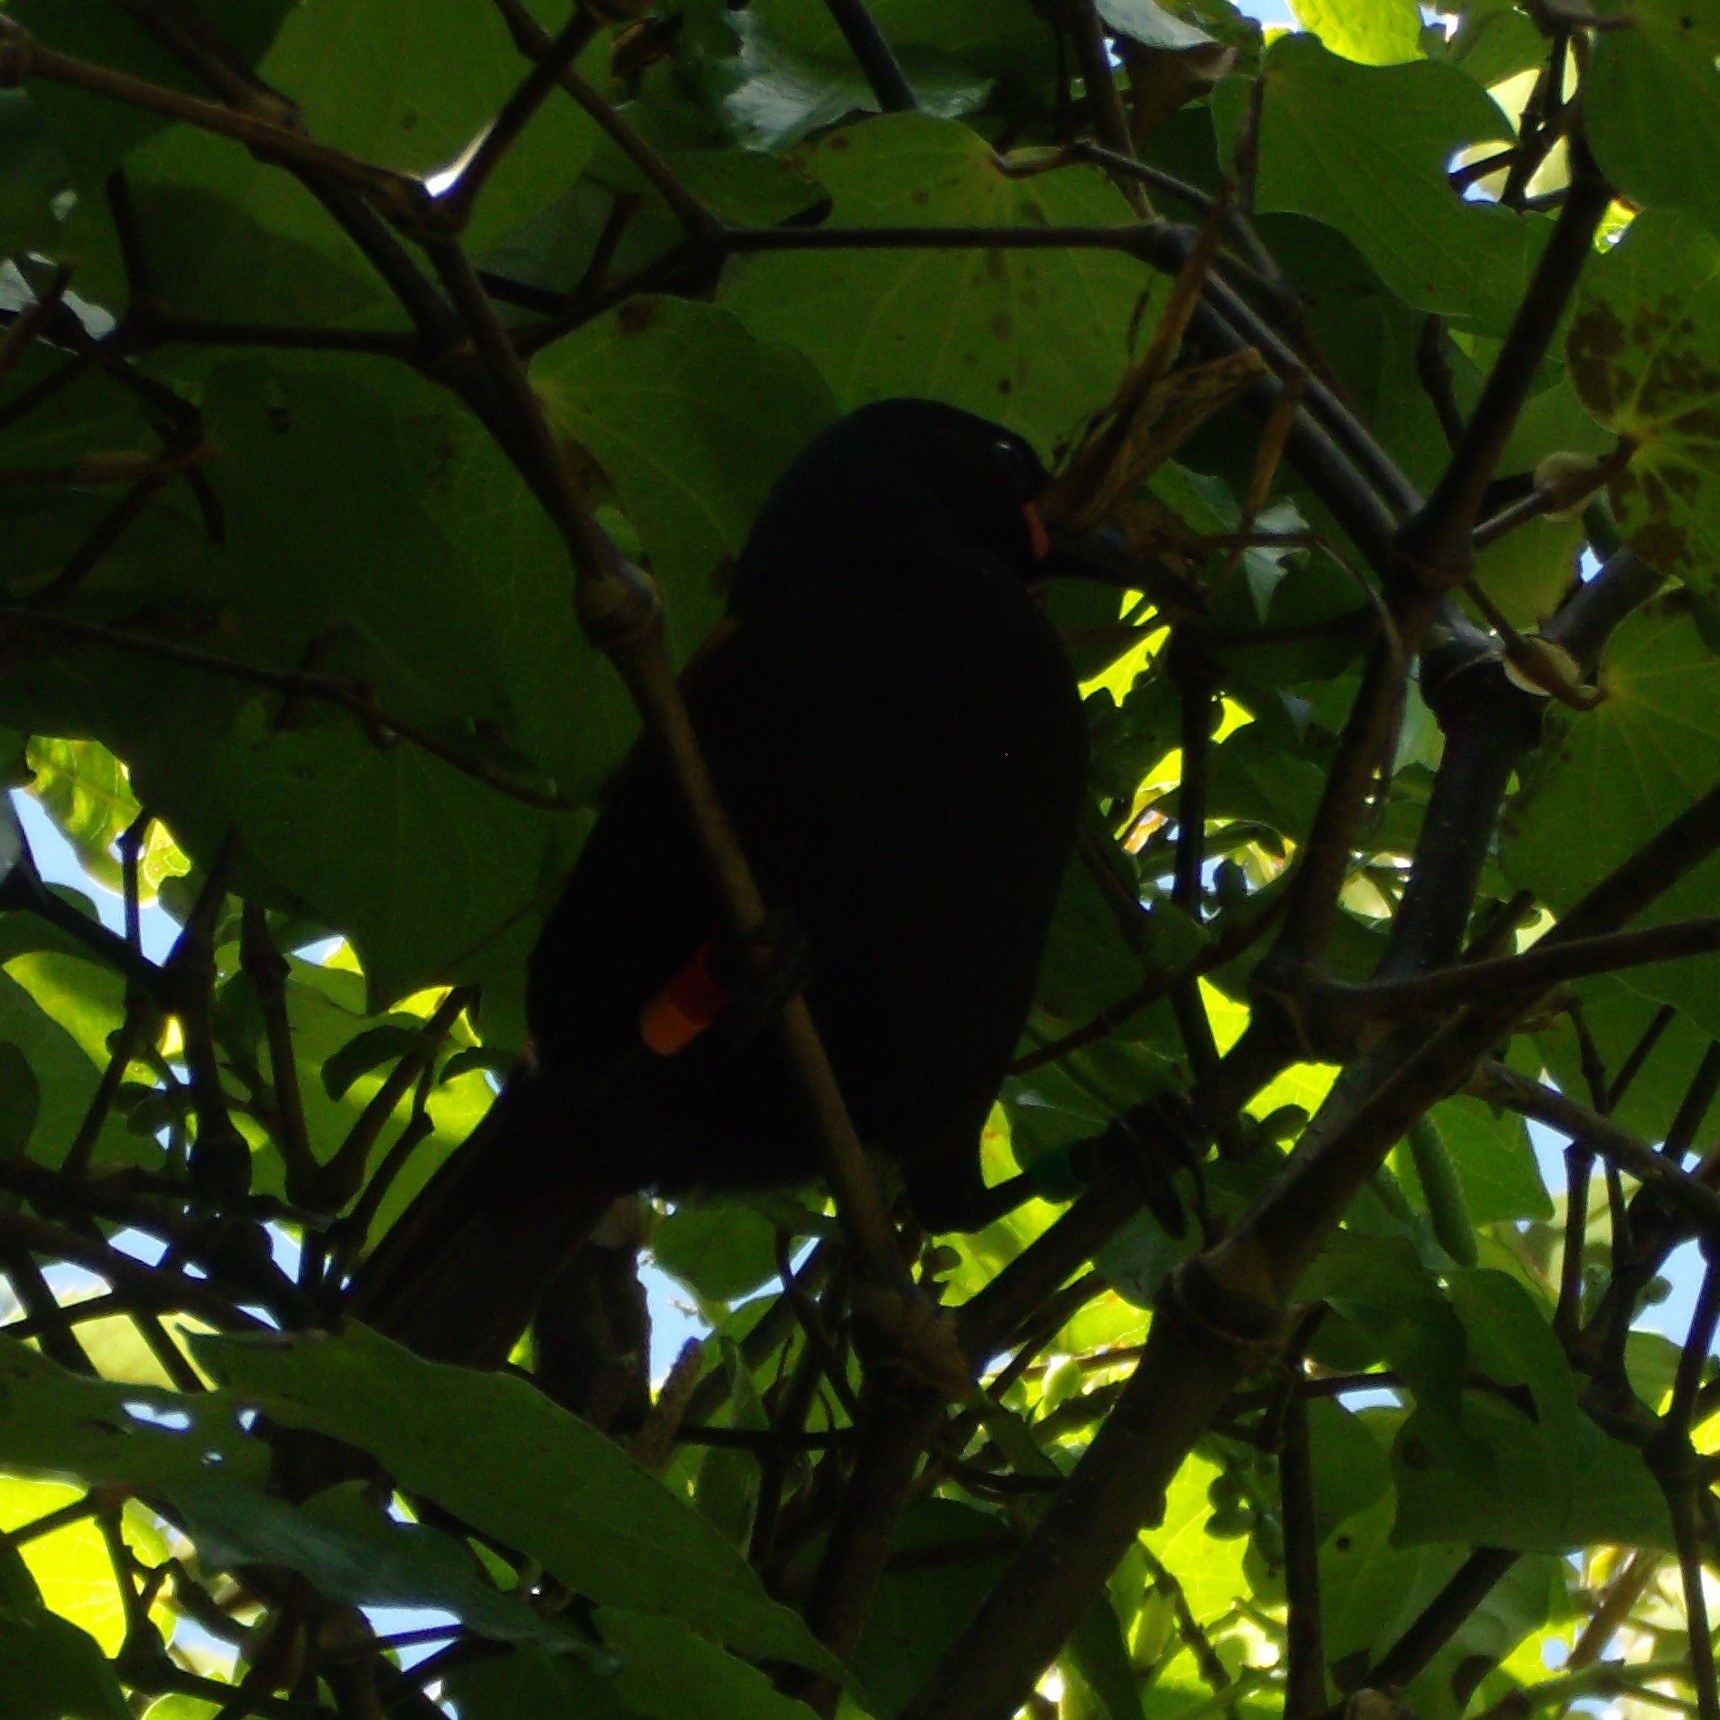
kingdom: Animalia
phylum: Chordata
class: Aves
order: Passeriformes
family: Callaeatidae
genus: Philesturnus
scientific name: Philesturnus carunculatus
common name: South island saddleback
